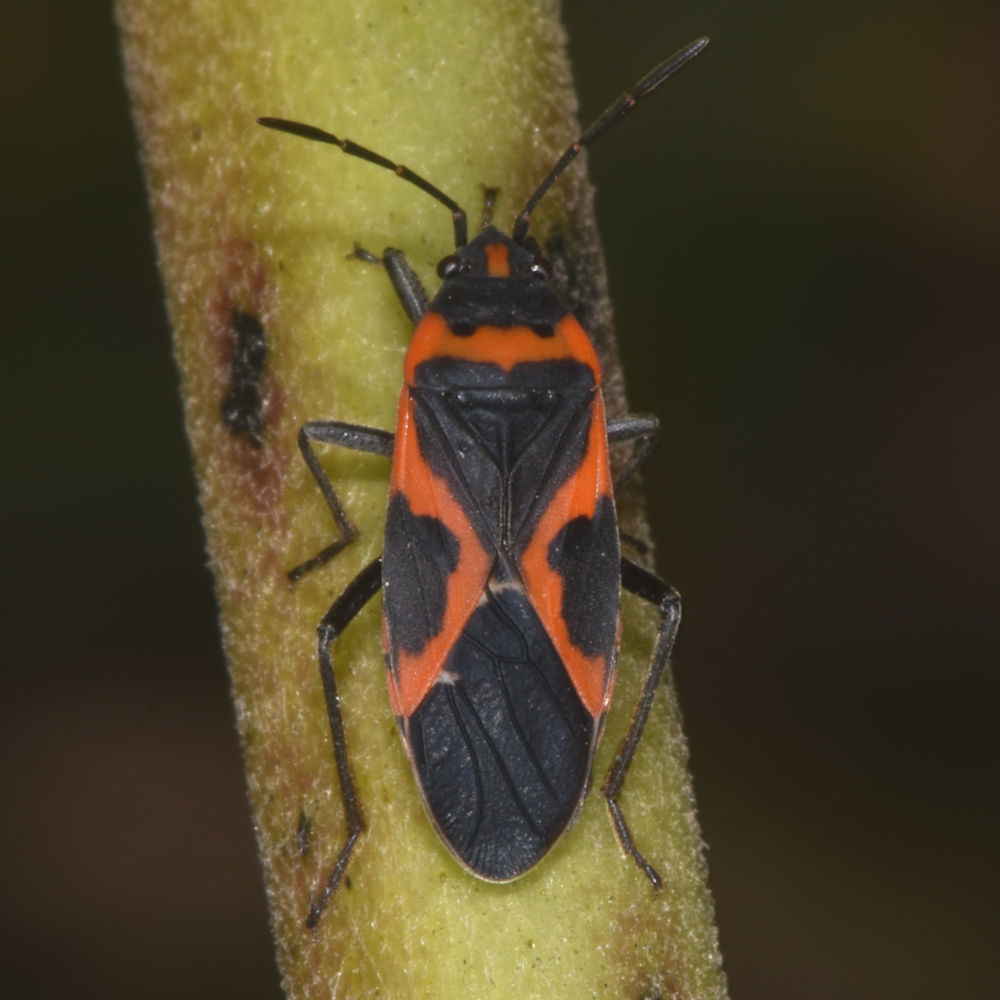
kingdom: Animalia
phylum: Arthropoda
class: Insecta
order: Hemiptera
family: Lygaeidae
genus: Lygaeus
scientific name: Lygaeus kalmii
